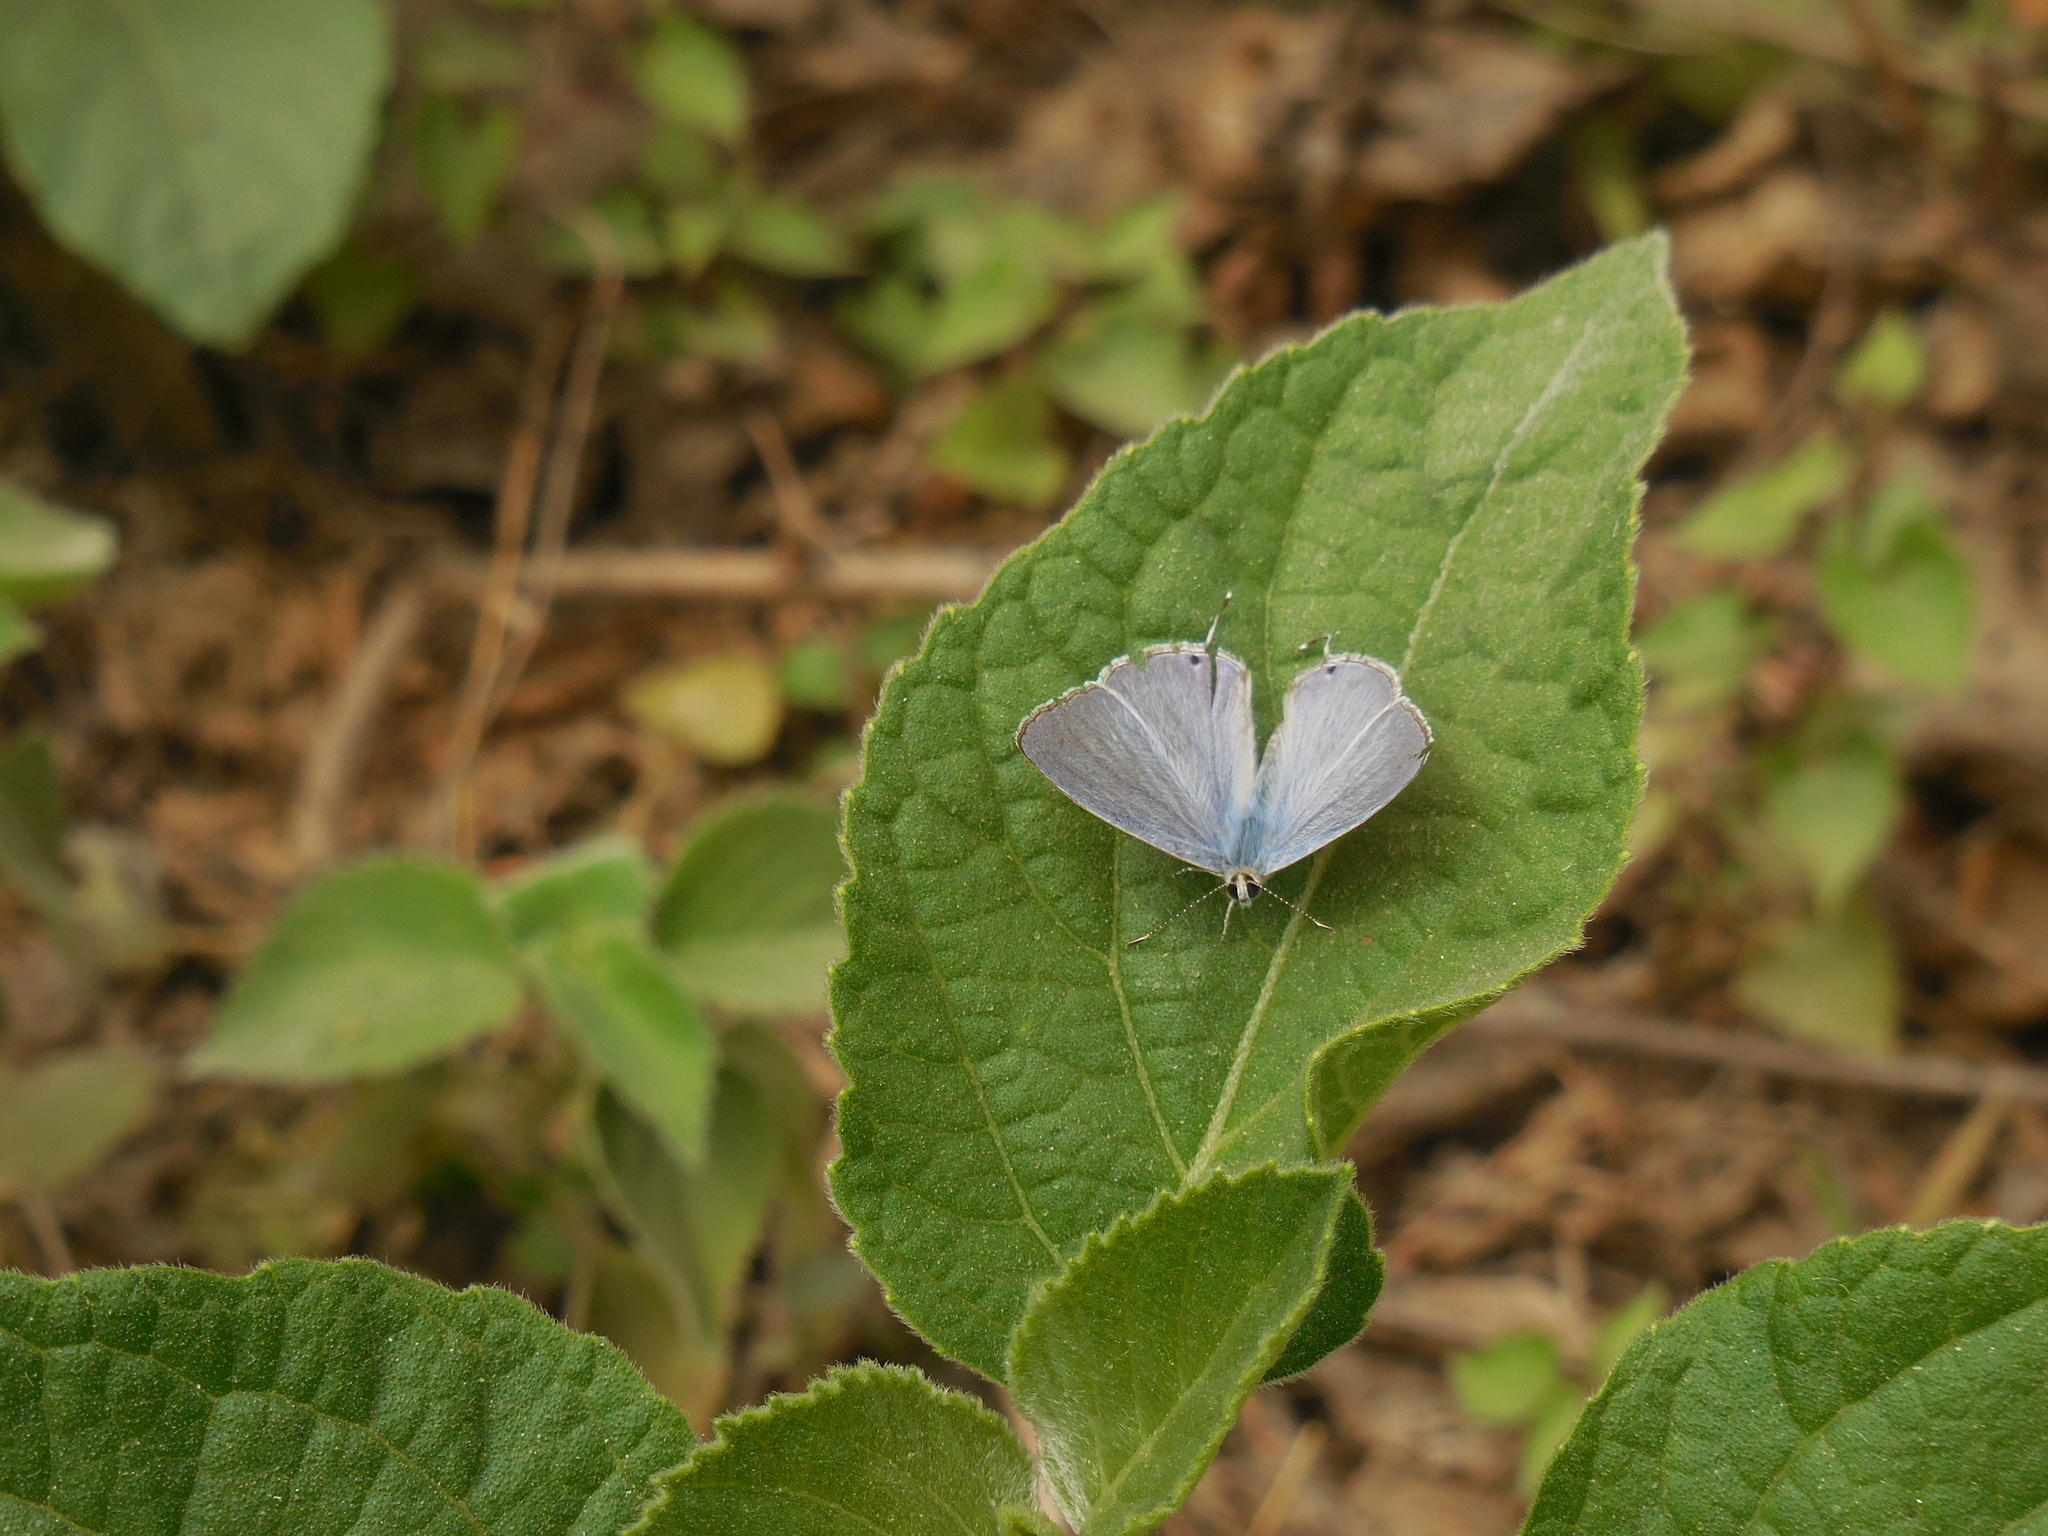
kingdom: Animalia
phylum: Arthropoda
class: Insecta
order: Lepidoptera
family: Lycaenidae
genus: Catochrysops
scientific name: Catochrysops strabo
